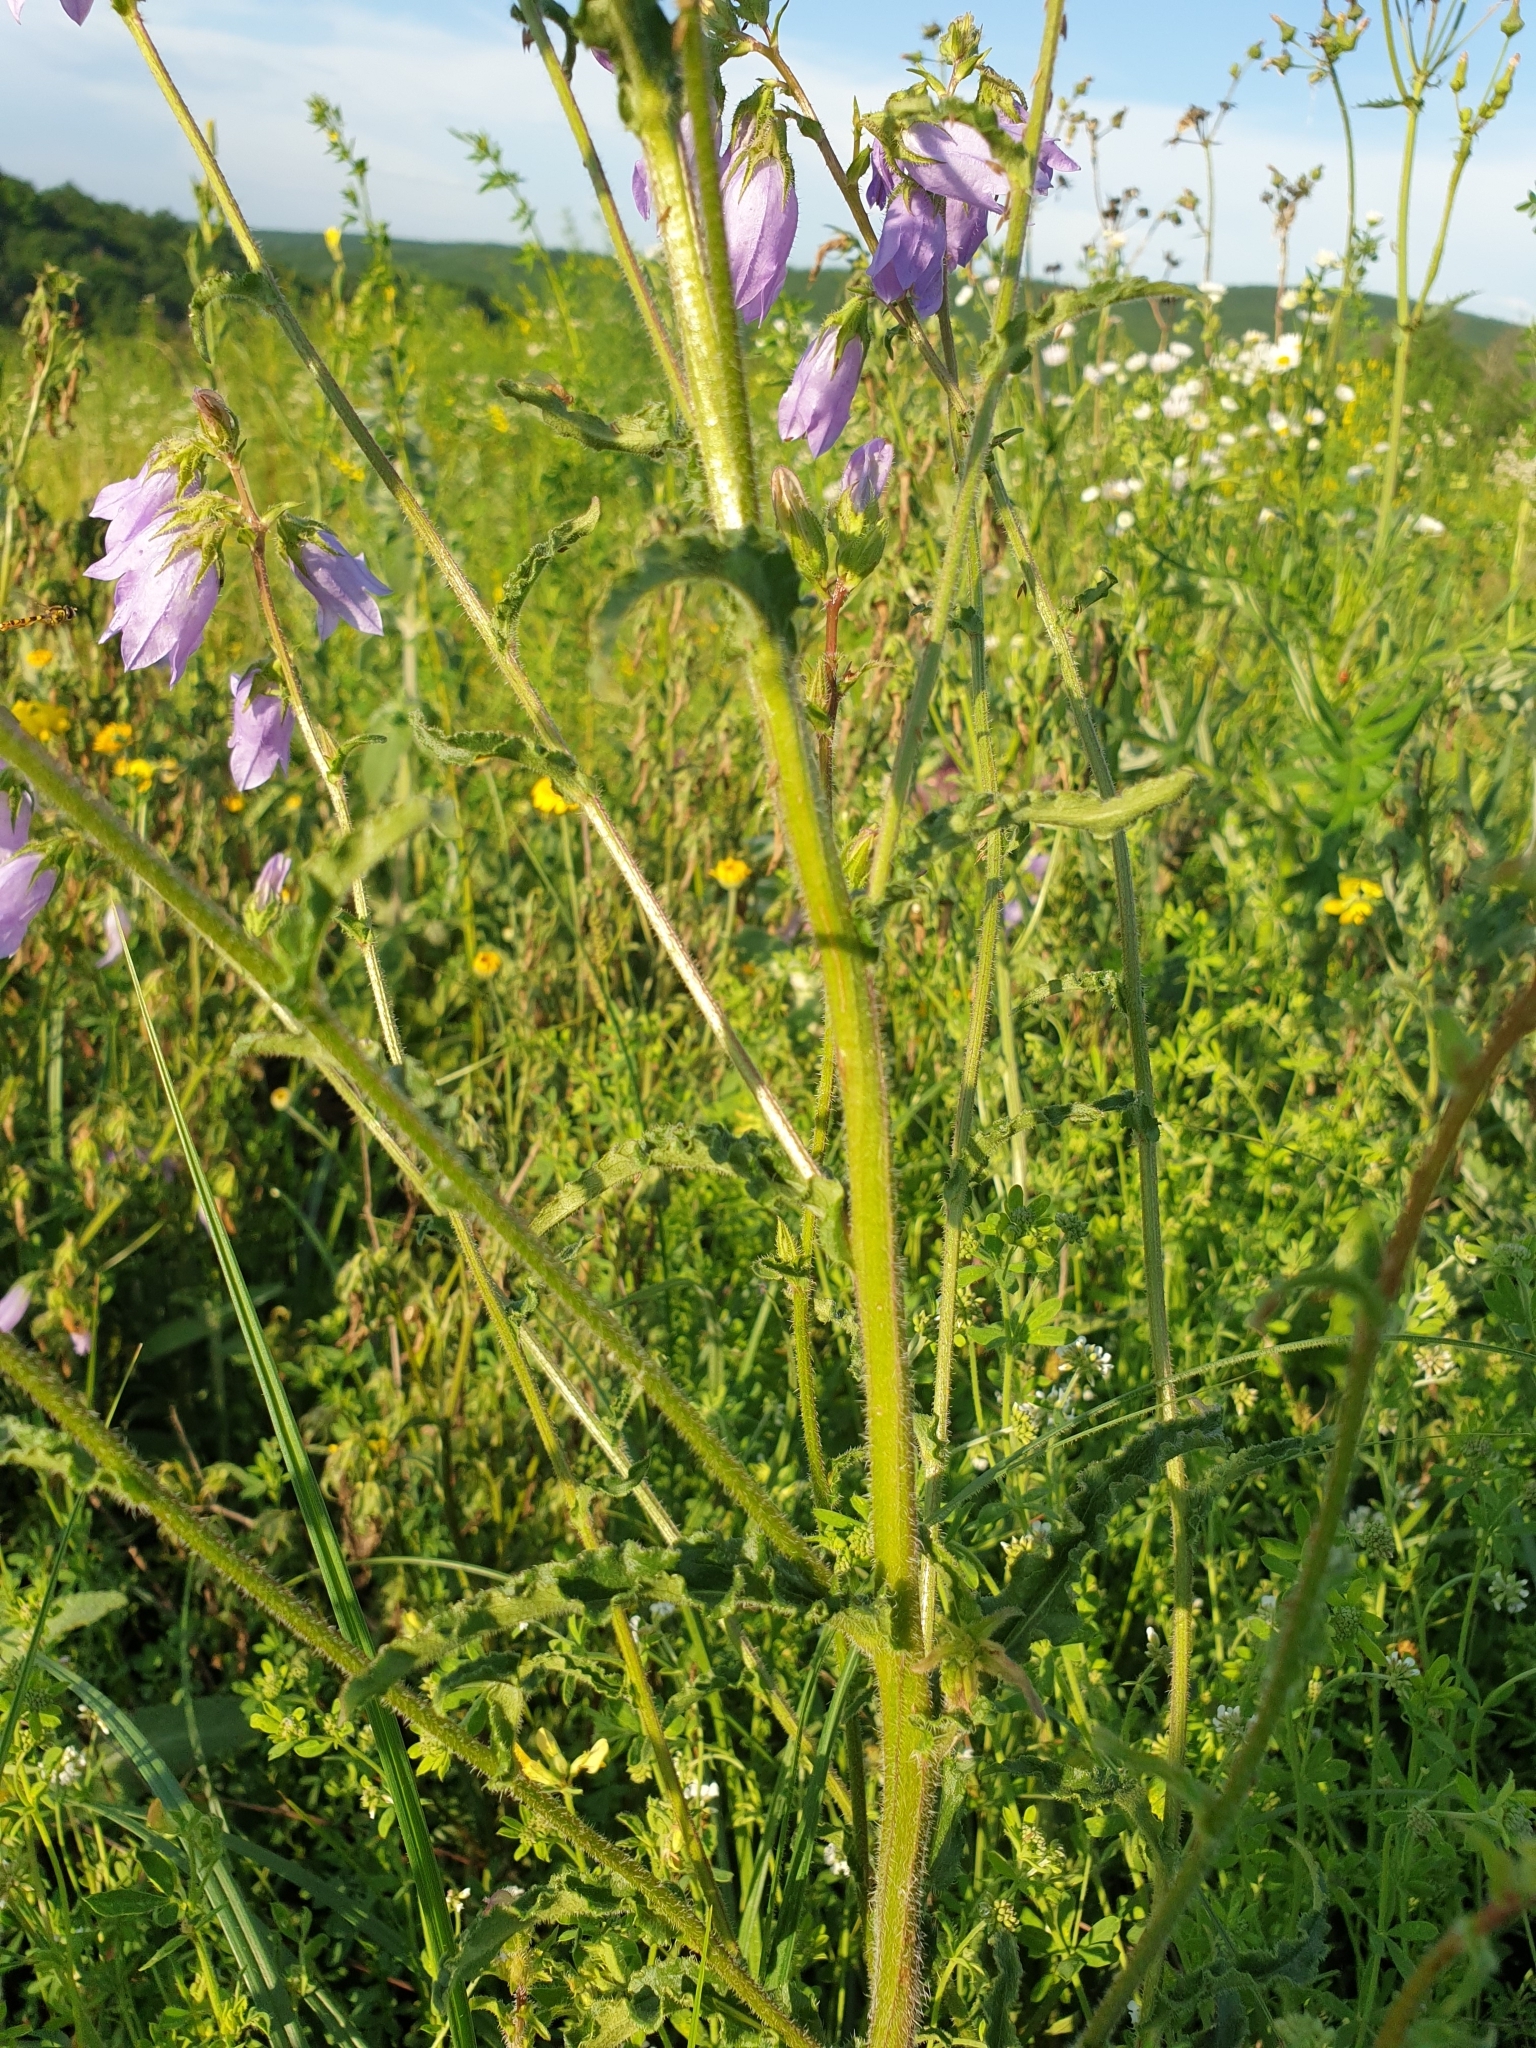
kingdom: Plantae
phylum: Tracheophyta
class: Magnoliopsida
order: Asterales
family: Campanulaceae
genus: Campanula
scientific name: Campanula sibirica
